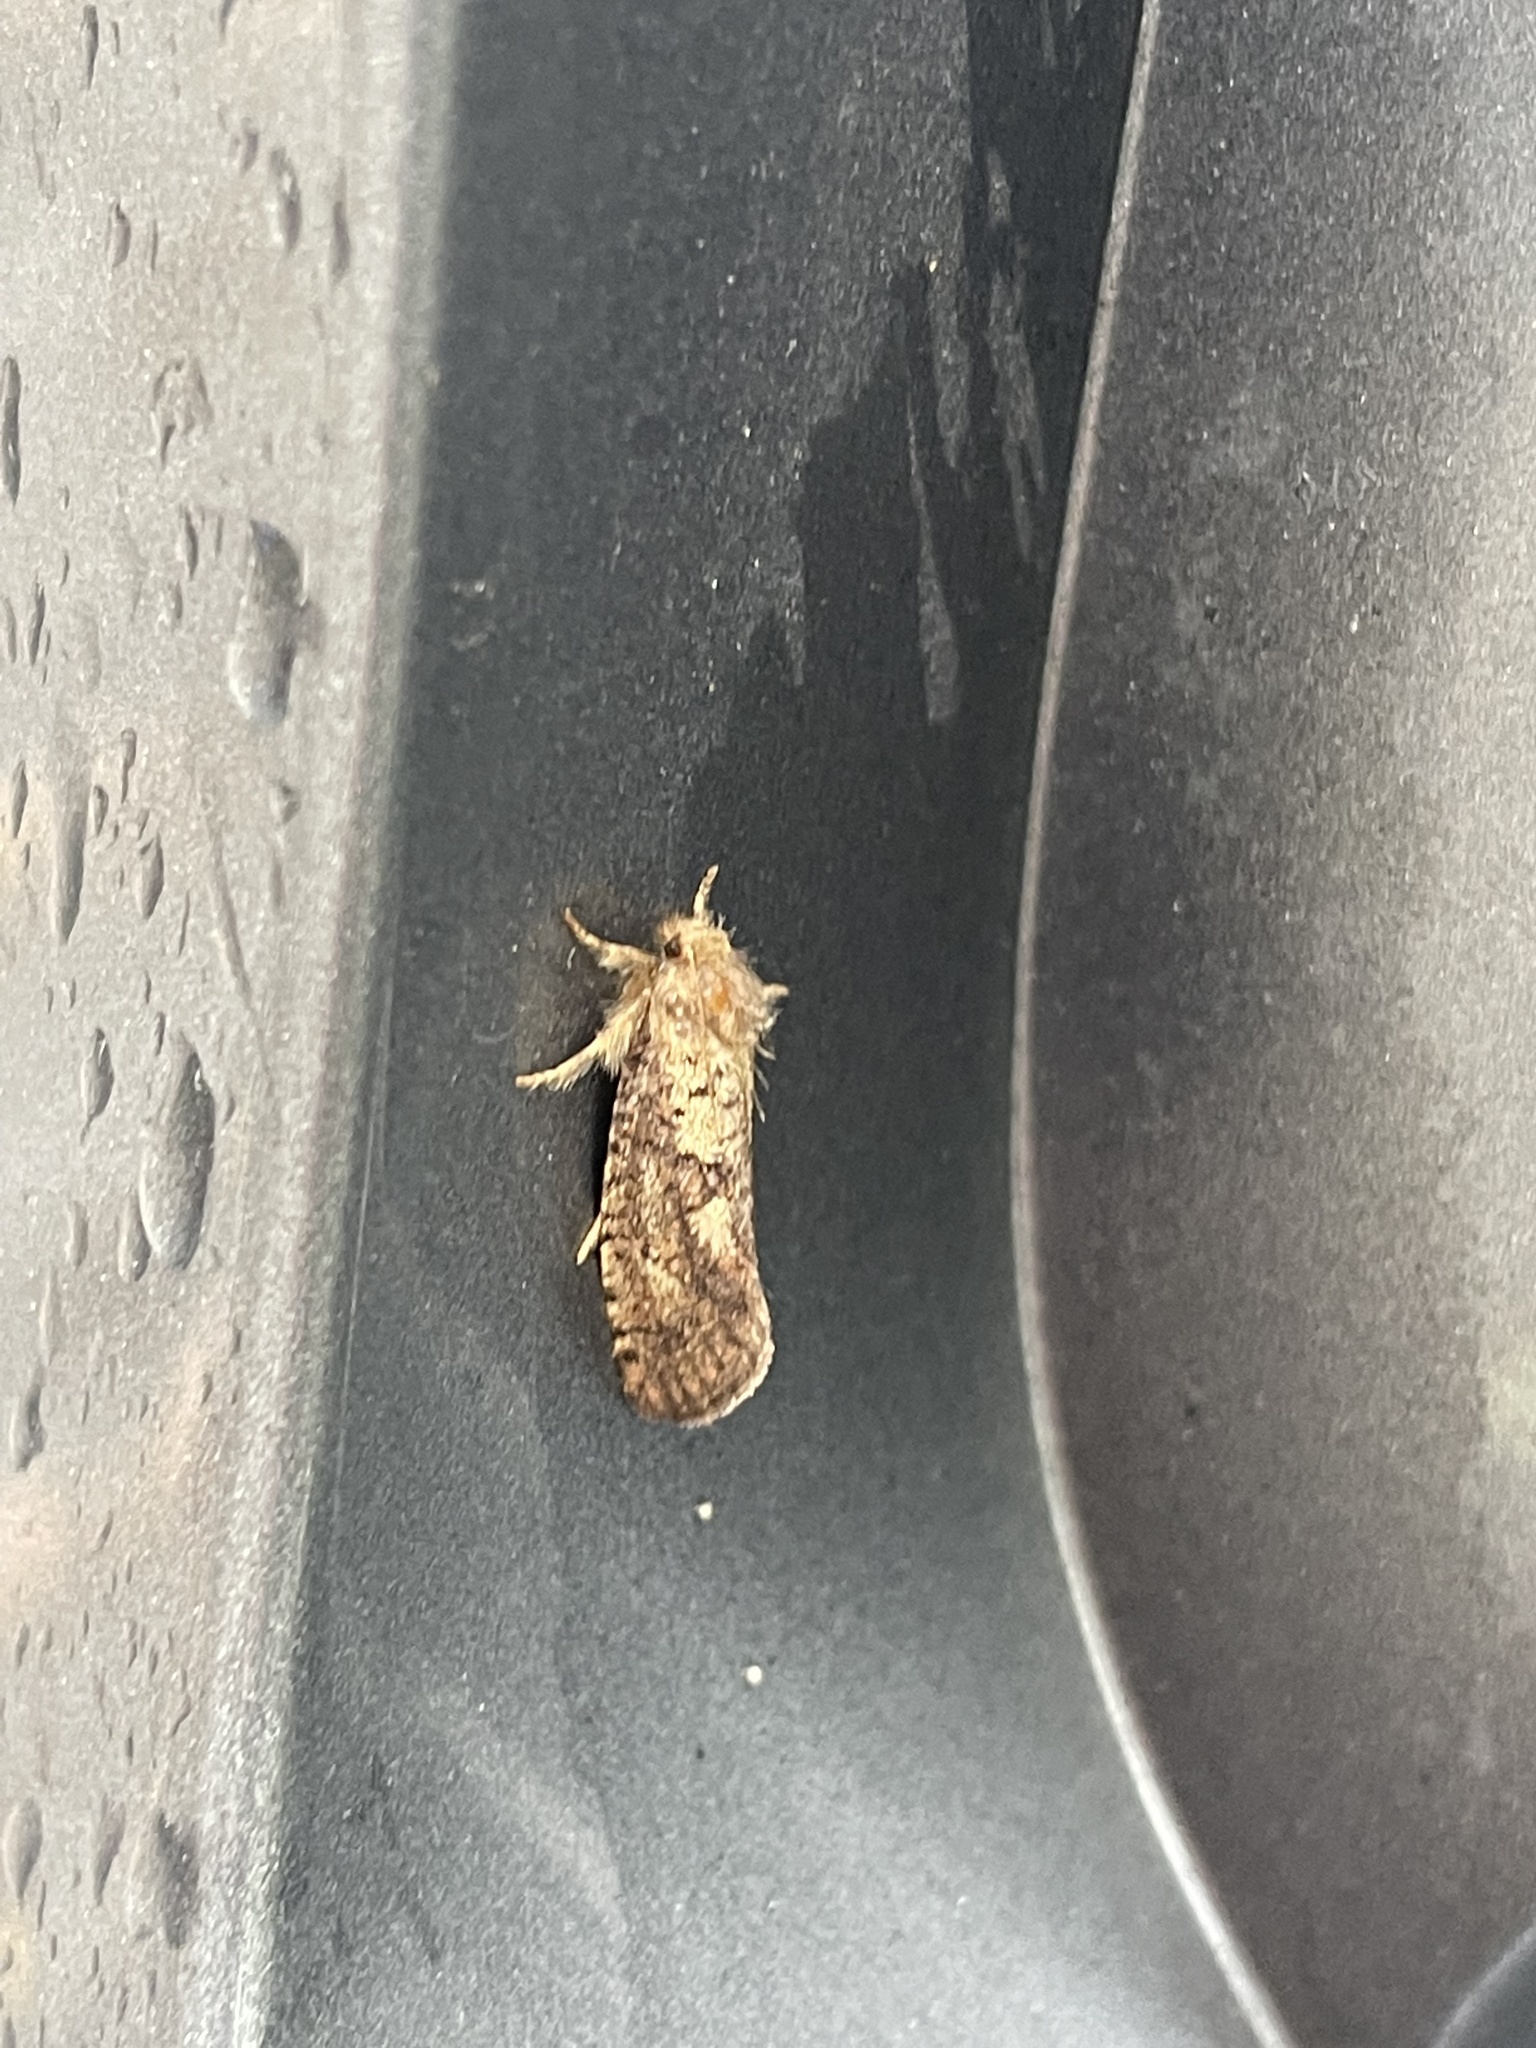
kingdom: Animalia
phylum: Arthropoda
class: Insecta
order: Lepidoptera
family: Tineidae
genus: Acrolophus
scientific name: Acrolophus mora
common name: Dark acrolophus
